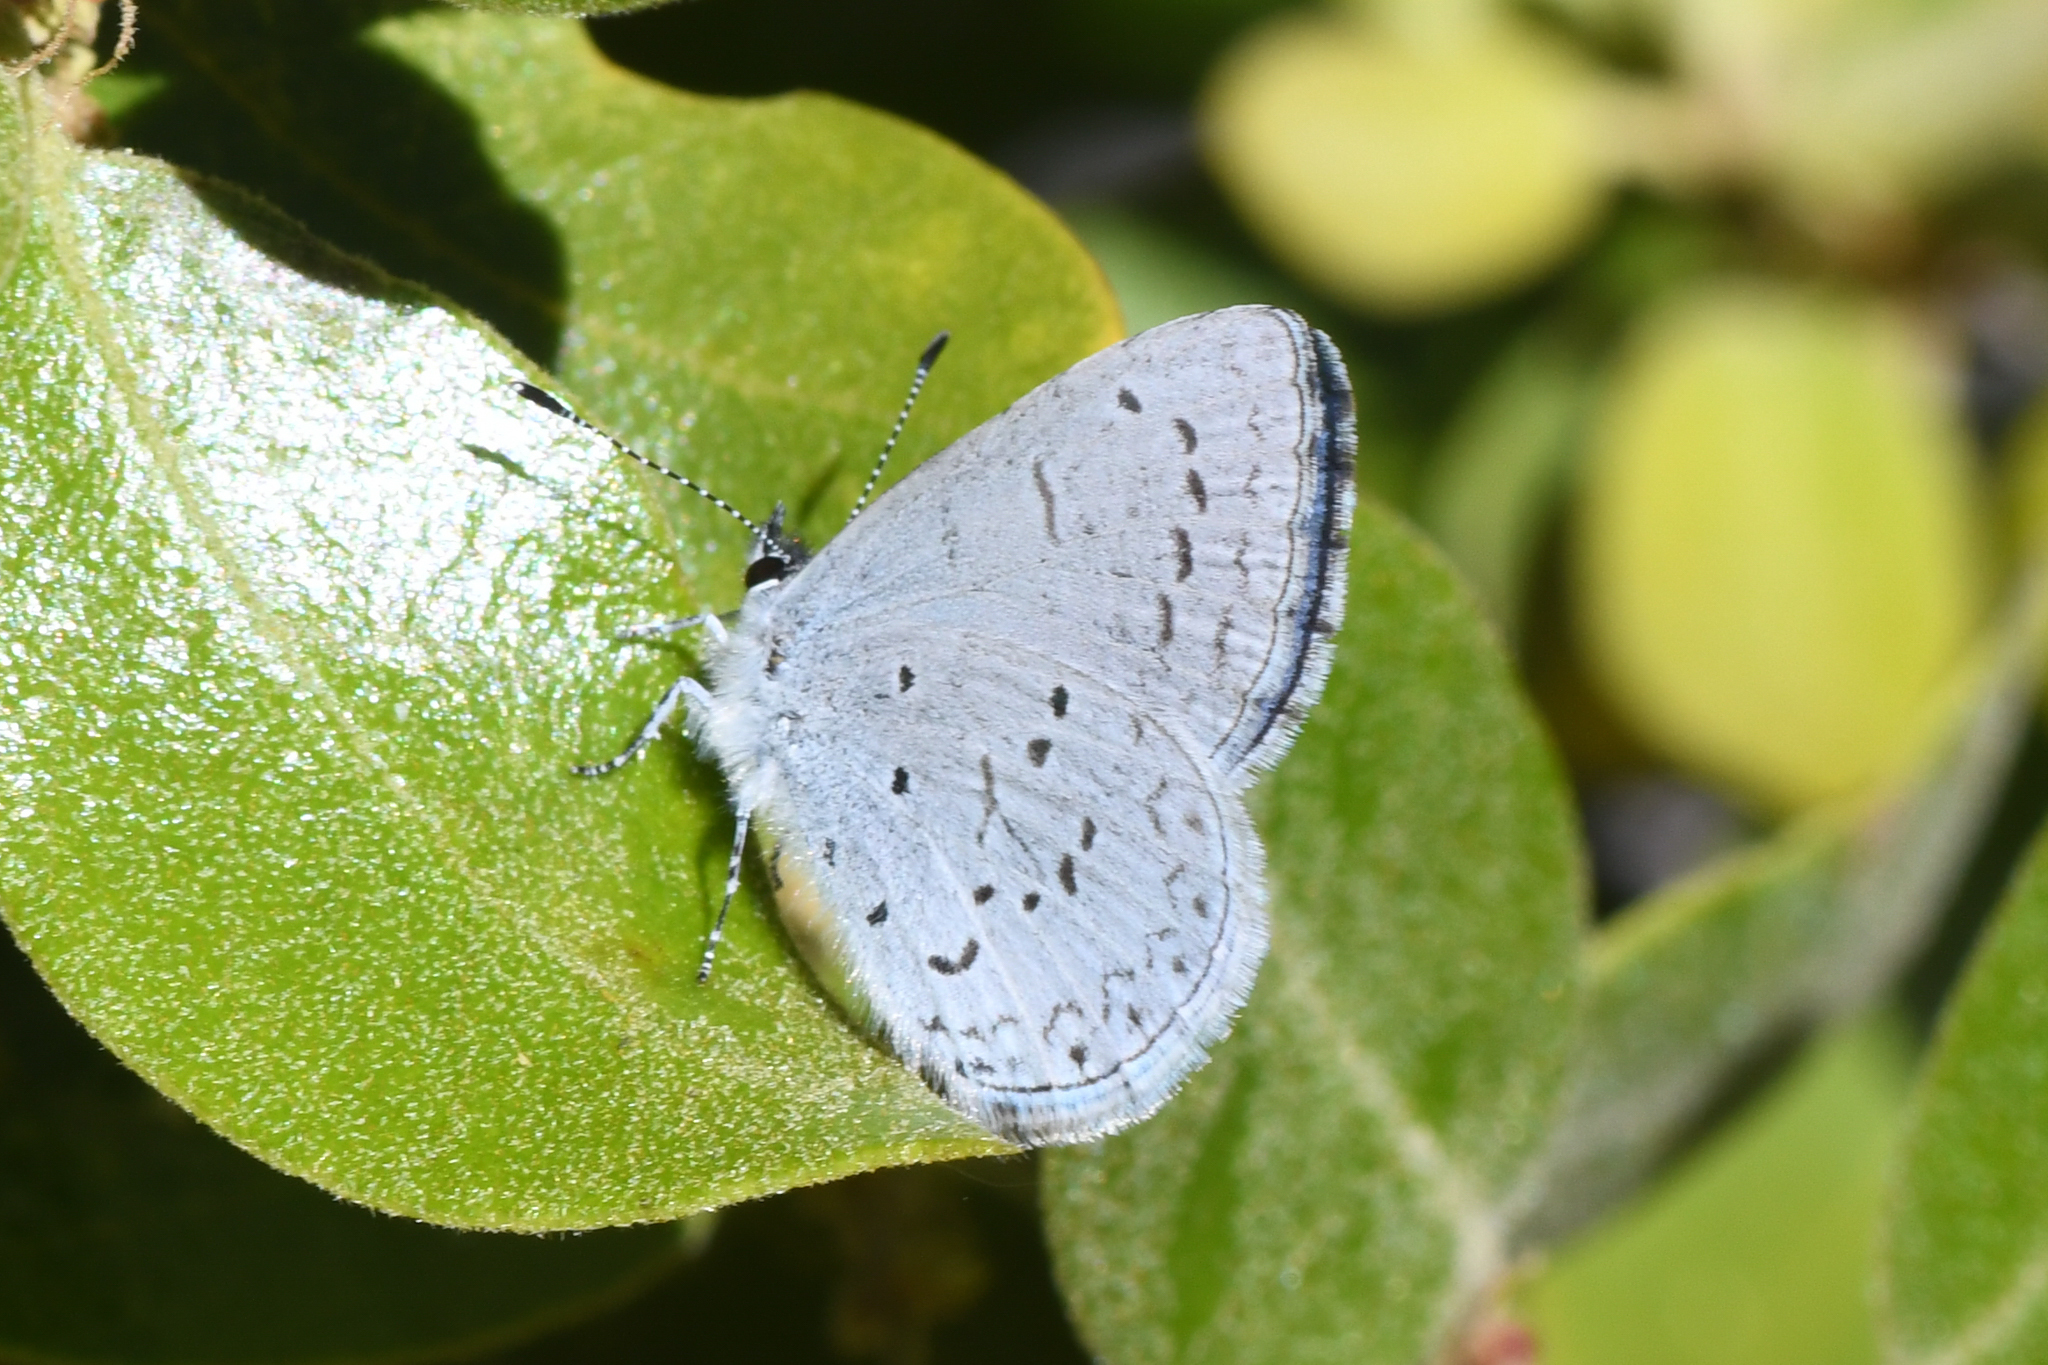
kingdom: Animalia
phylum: Arthropoda
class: Insecta
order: Lepidoptera
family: Lycaenidae
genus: Celastrina
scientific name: Celastrina ladon
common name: Spring azure
